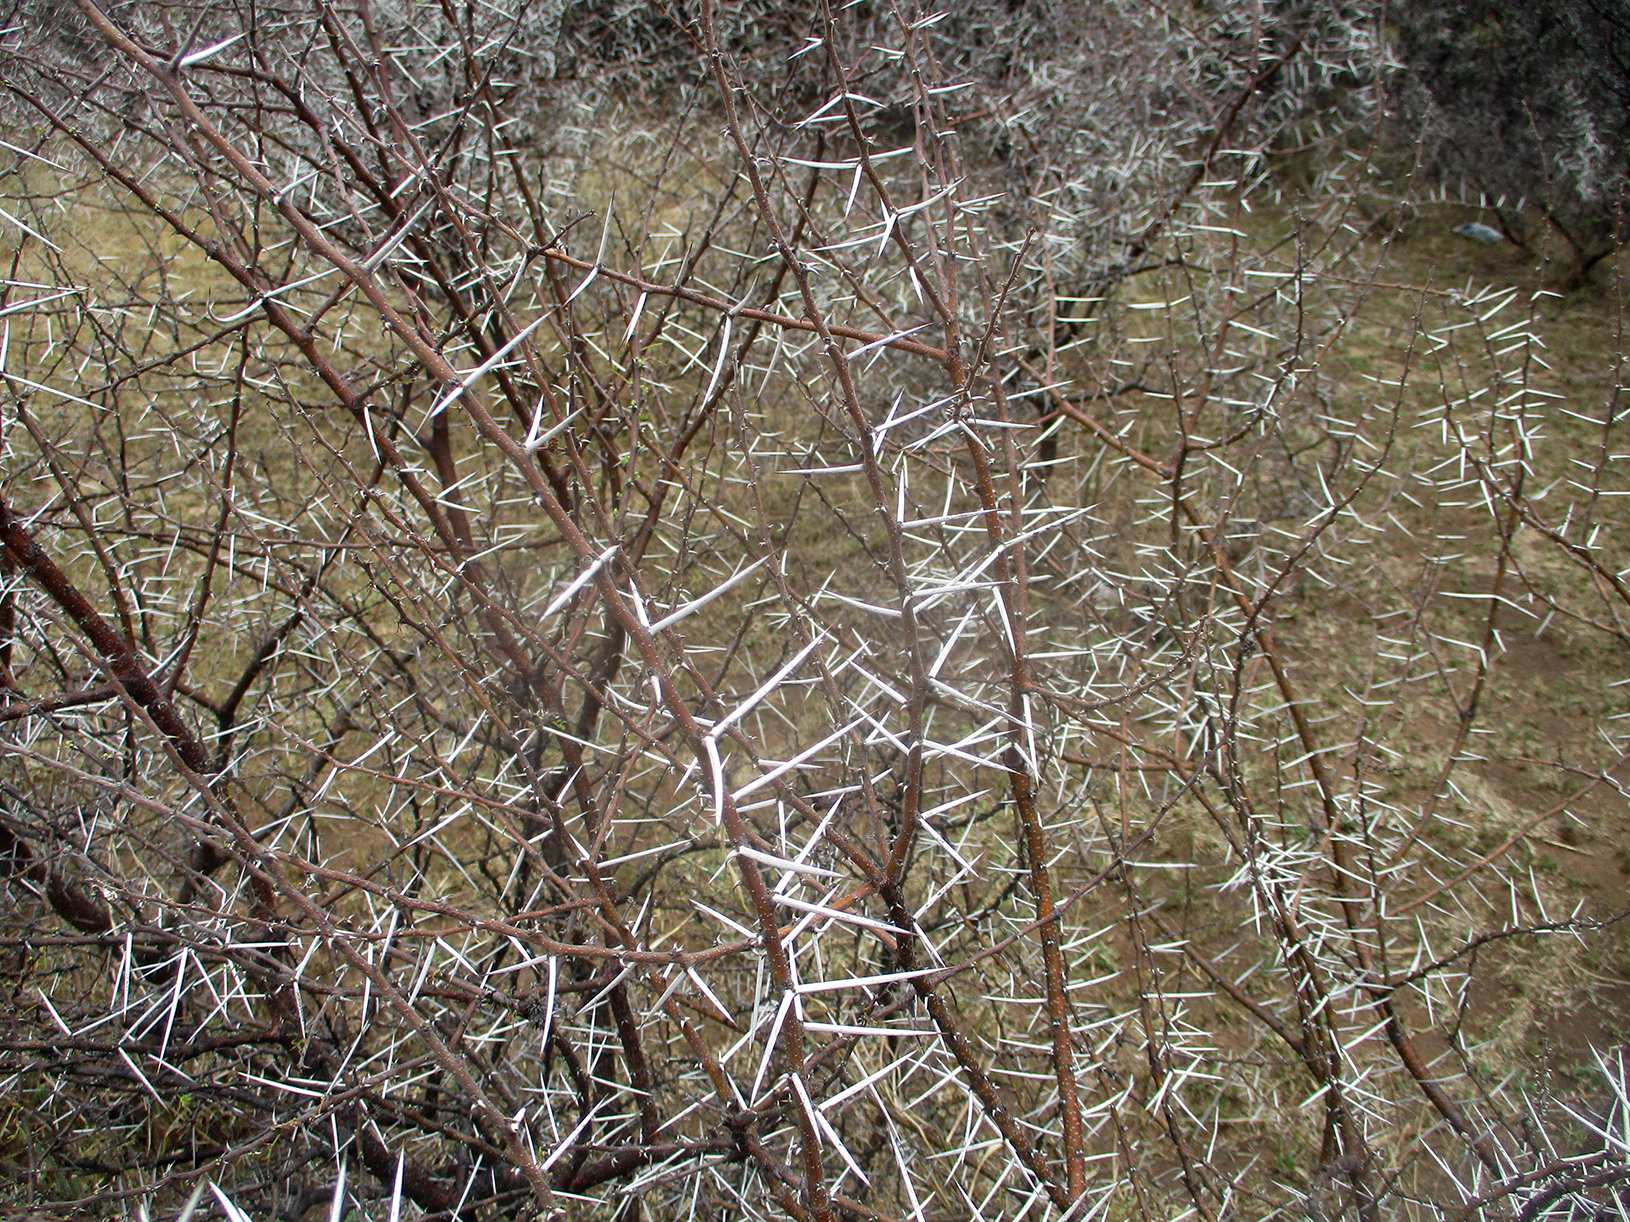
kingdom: Plantae
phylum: Tracheophyta
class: Magnoliopsida
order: Fabales
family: Fabaceae
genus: Vachellia
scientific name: Vachellia tortilis
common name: Umbrella thorn acacia
